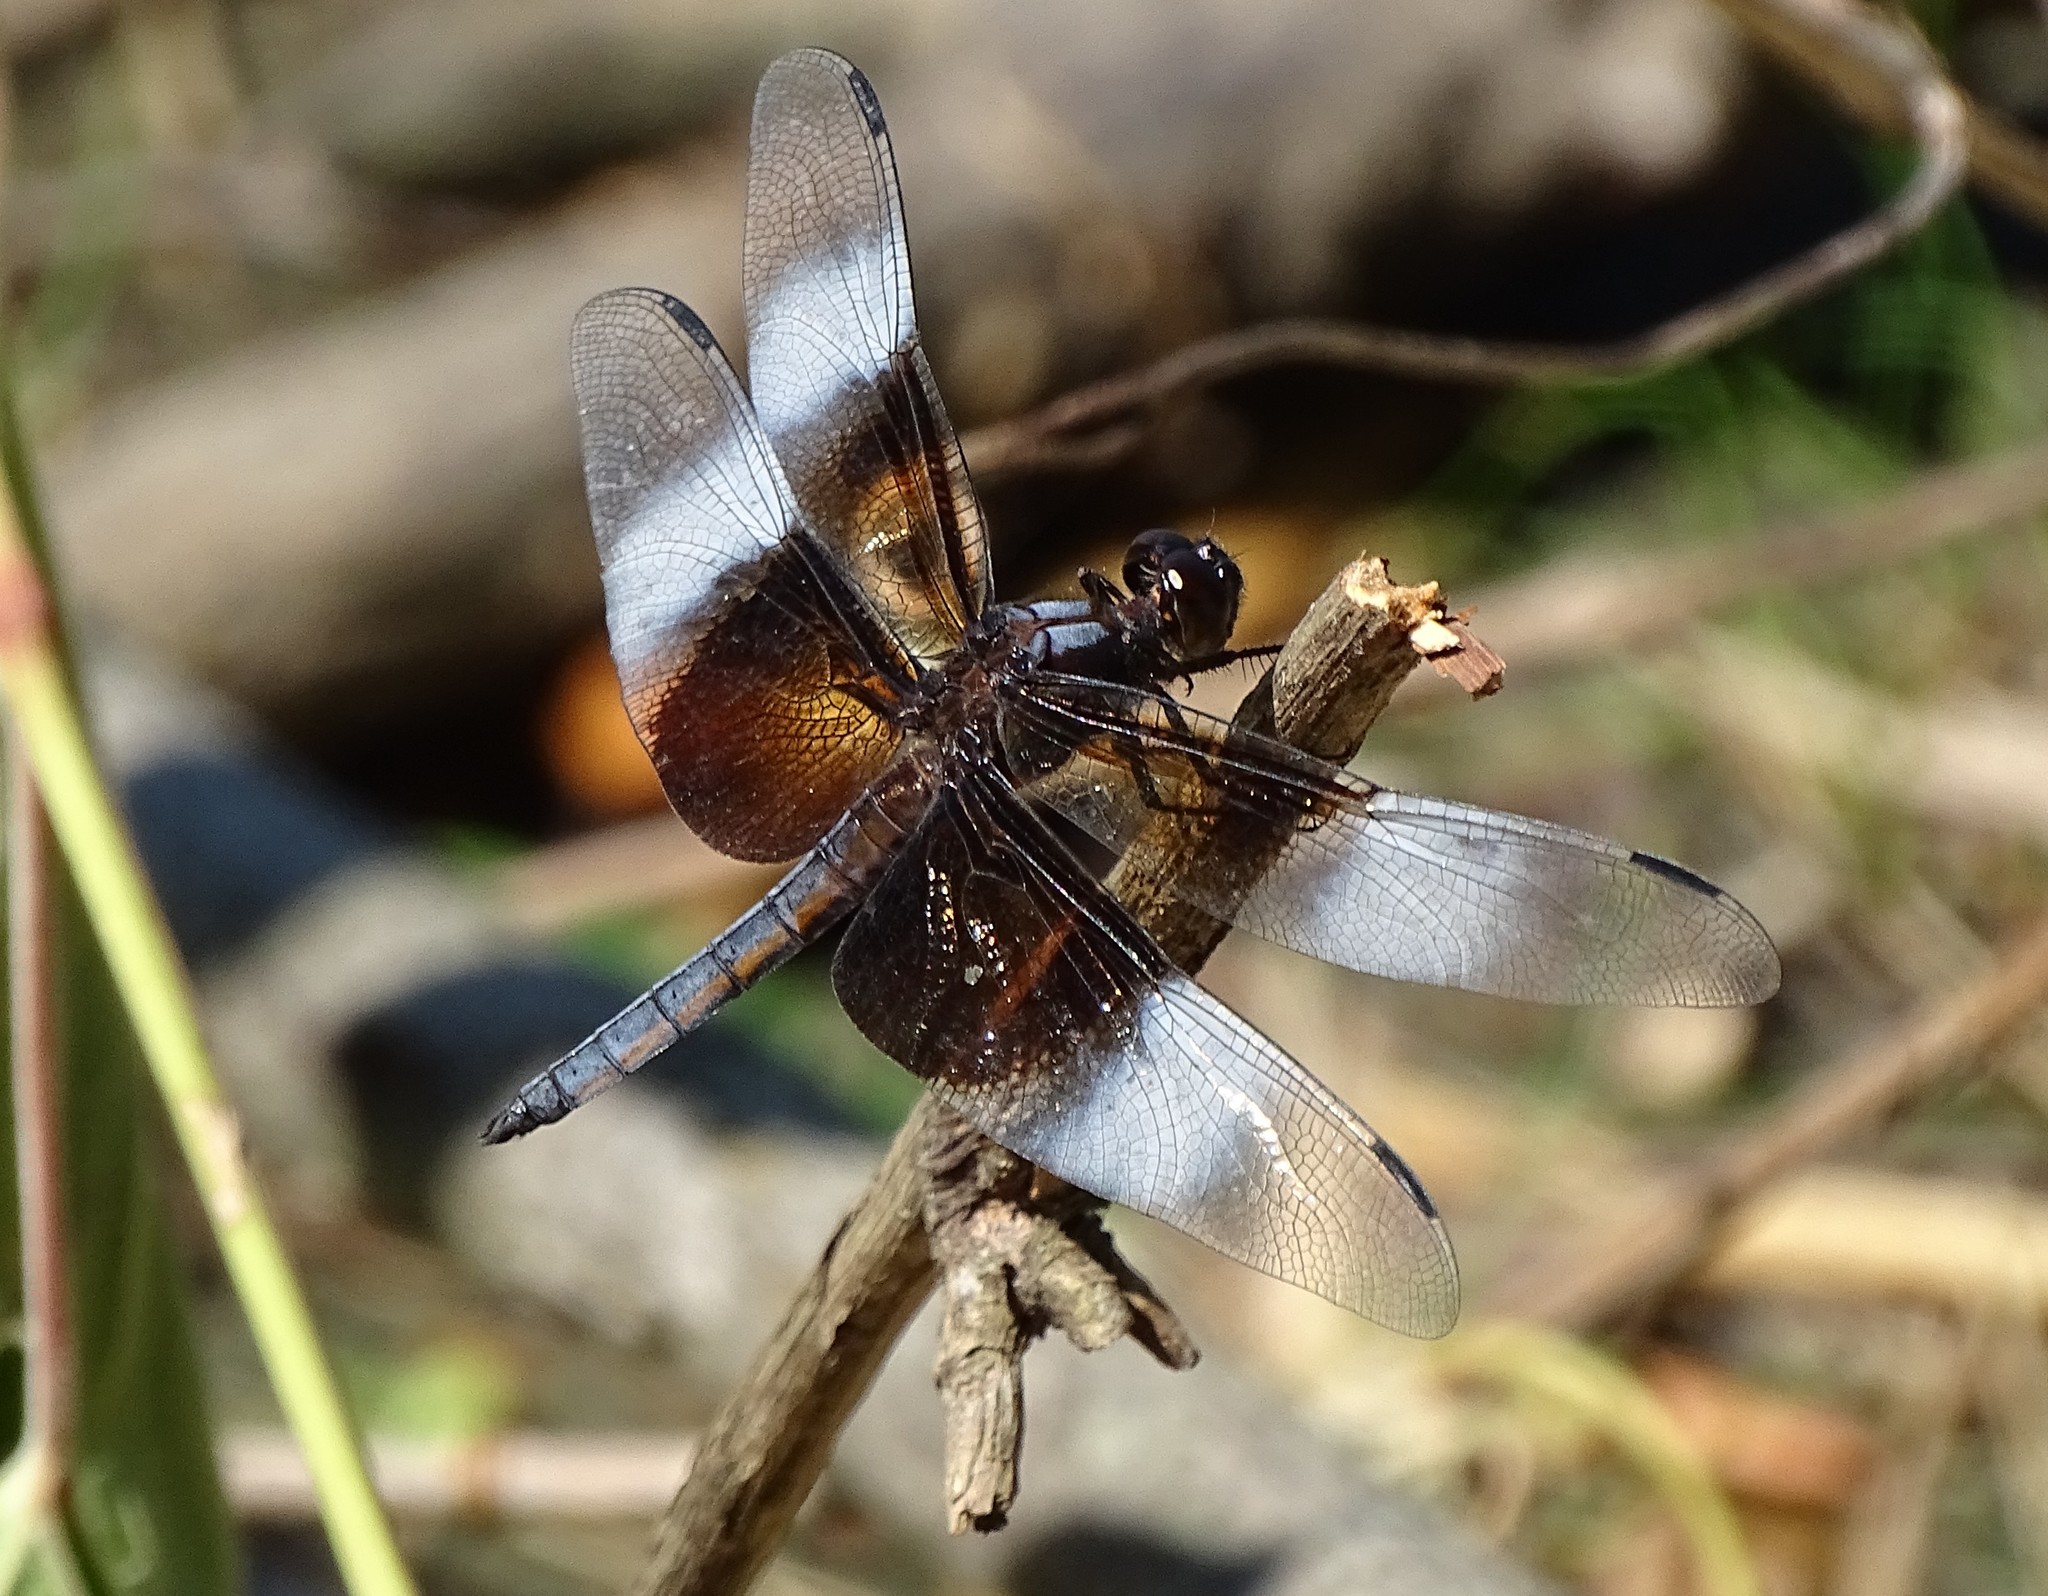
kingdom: Animalia
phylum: Arthropoda
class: Insecta
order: Odonata
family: Libellulidae
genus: Libellula
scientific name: Libellula luctuosa
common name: Widow skimmer
